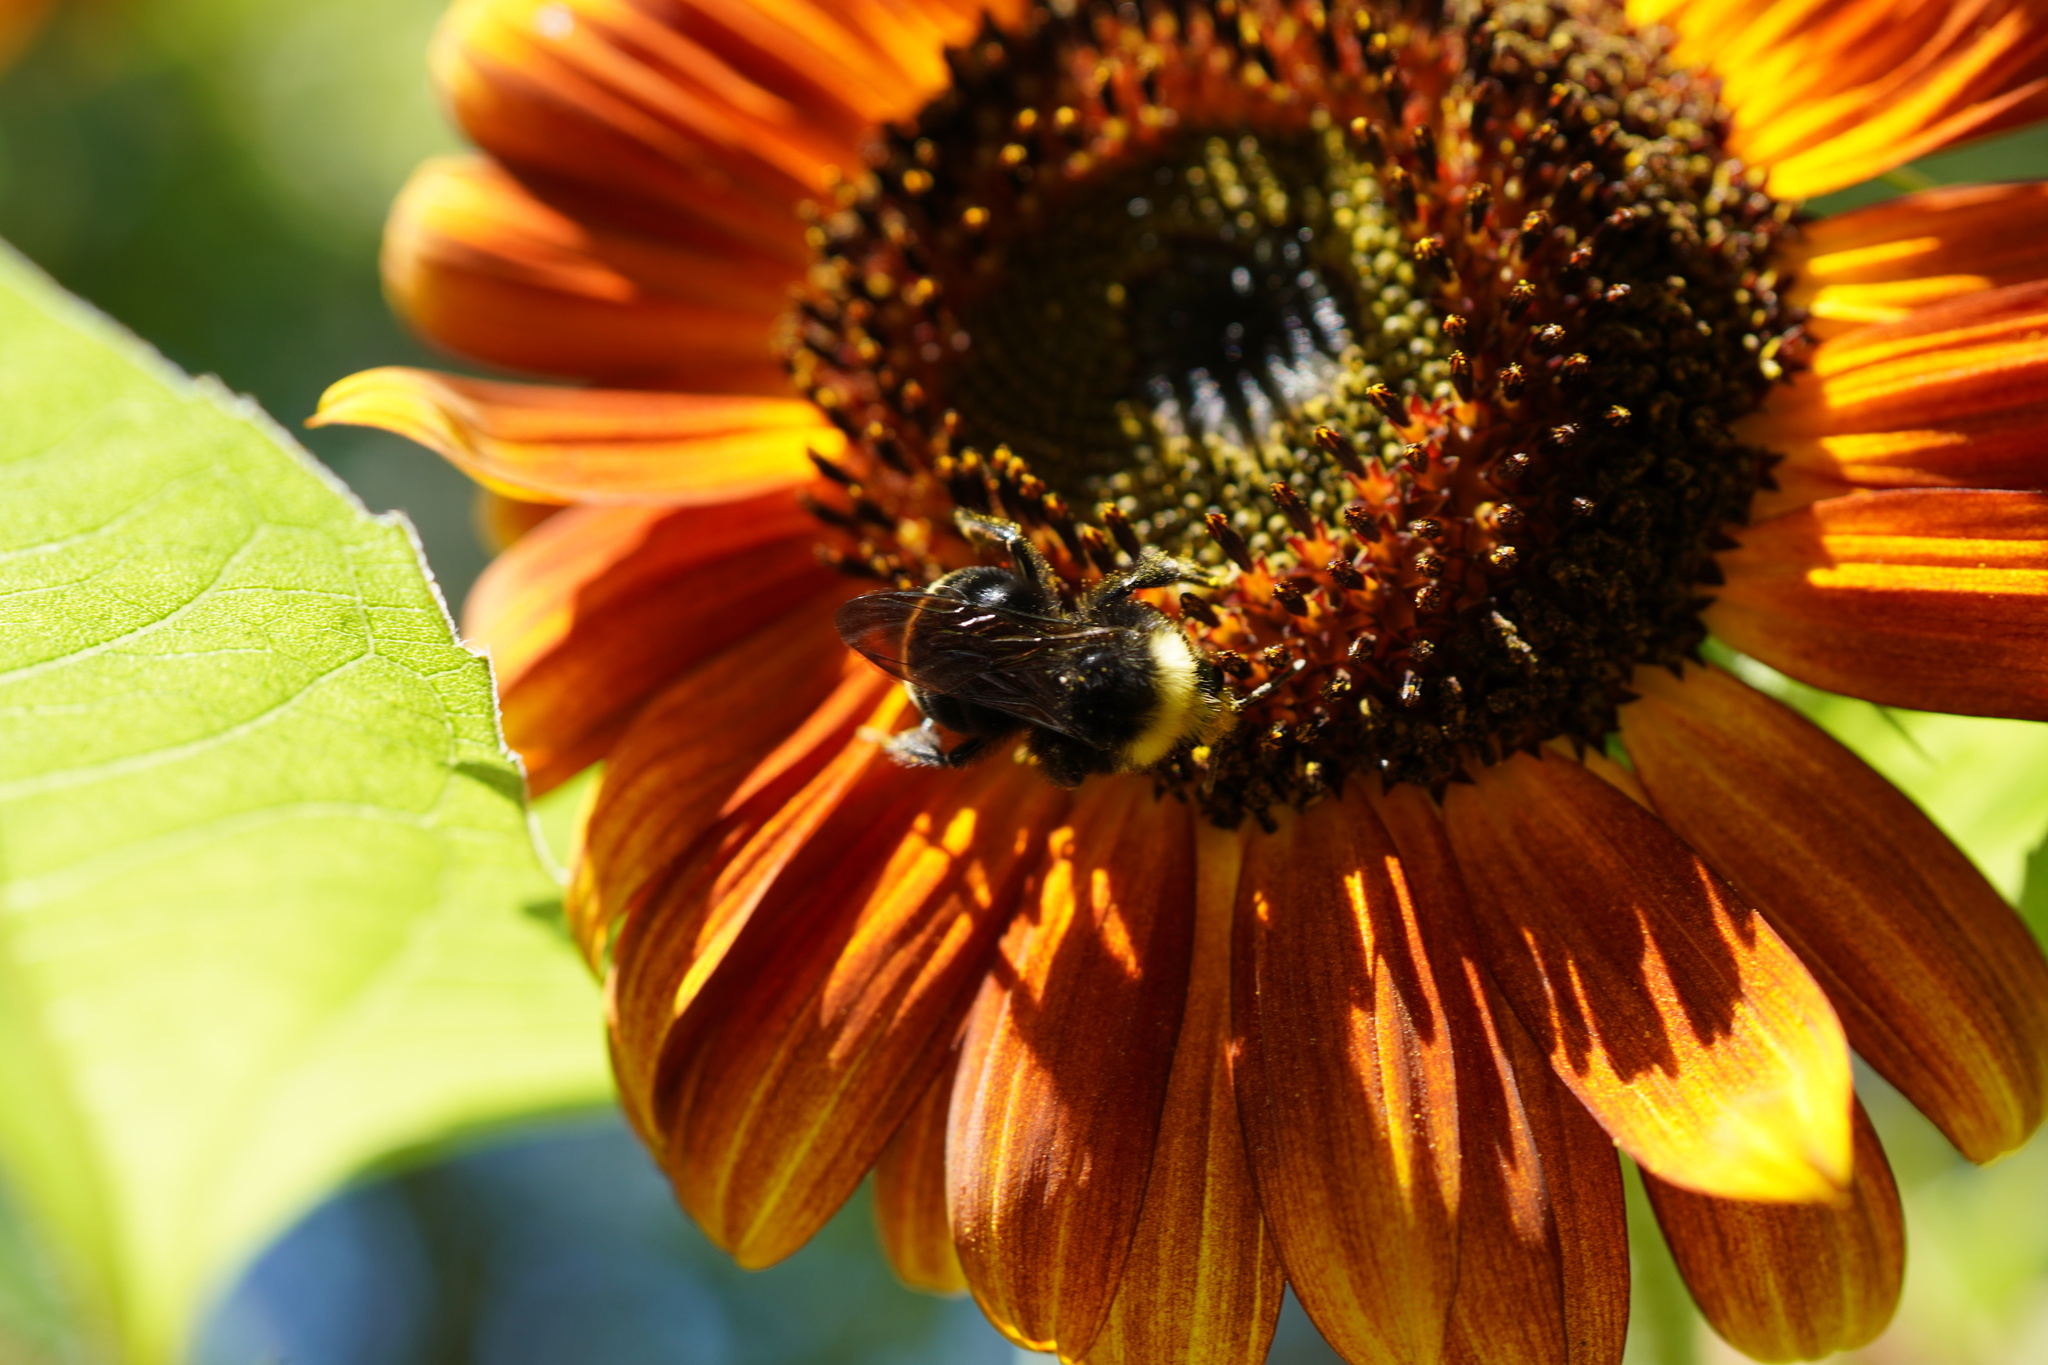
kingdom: Animalia
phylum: Arthropoda
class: Insecta
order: Hymenoptera
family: Apidae
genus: Bombus
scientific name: Bombus vosnesenskii
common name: Vosnesensky bumble bee
